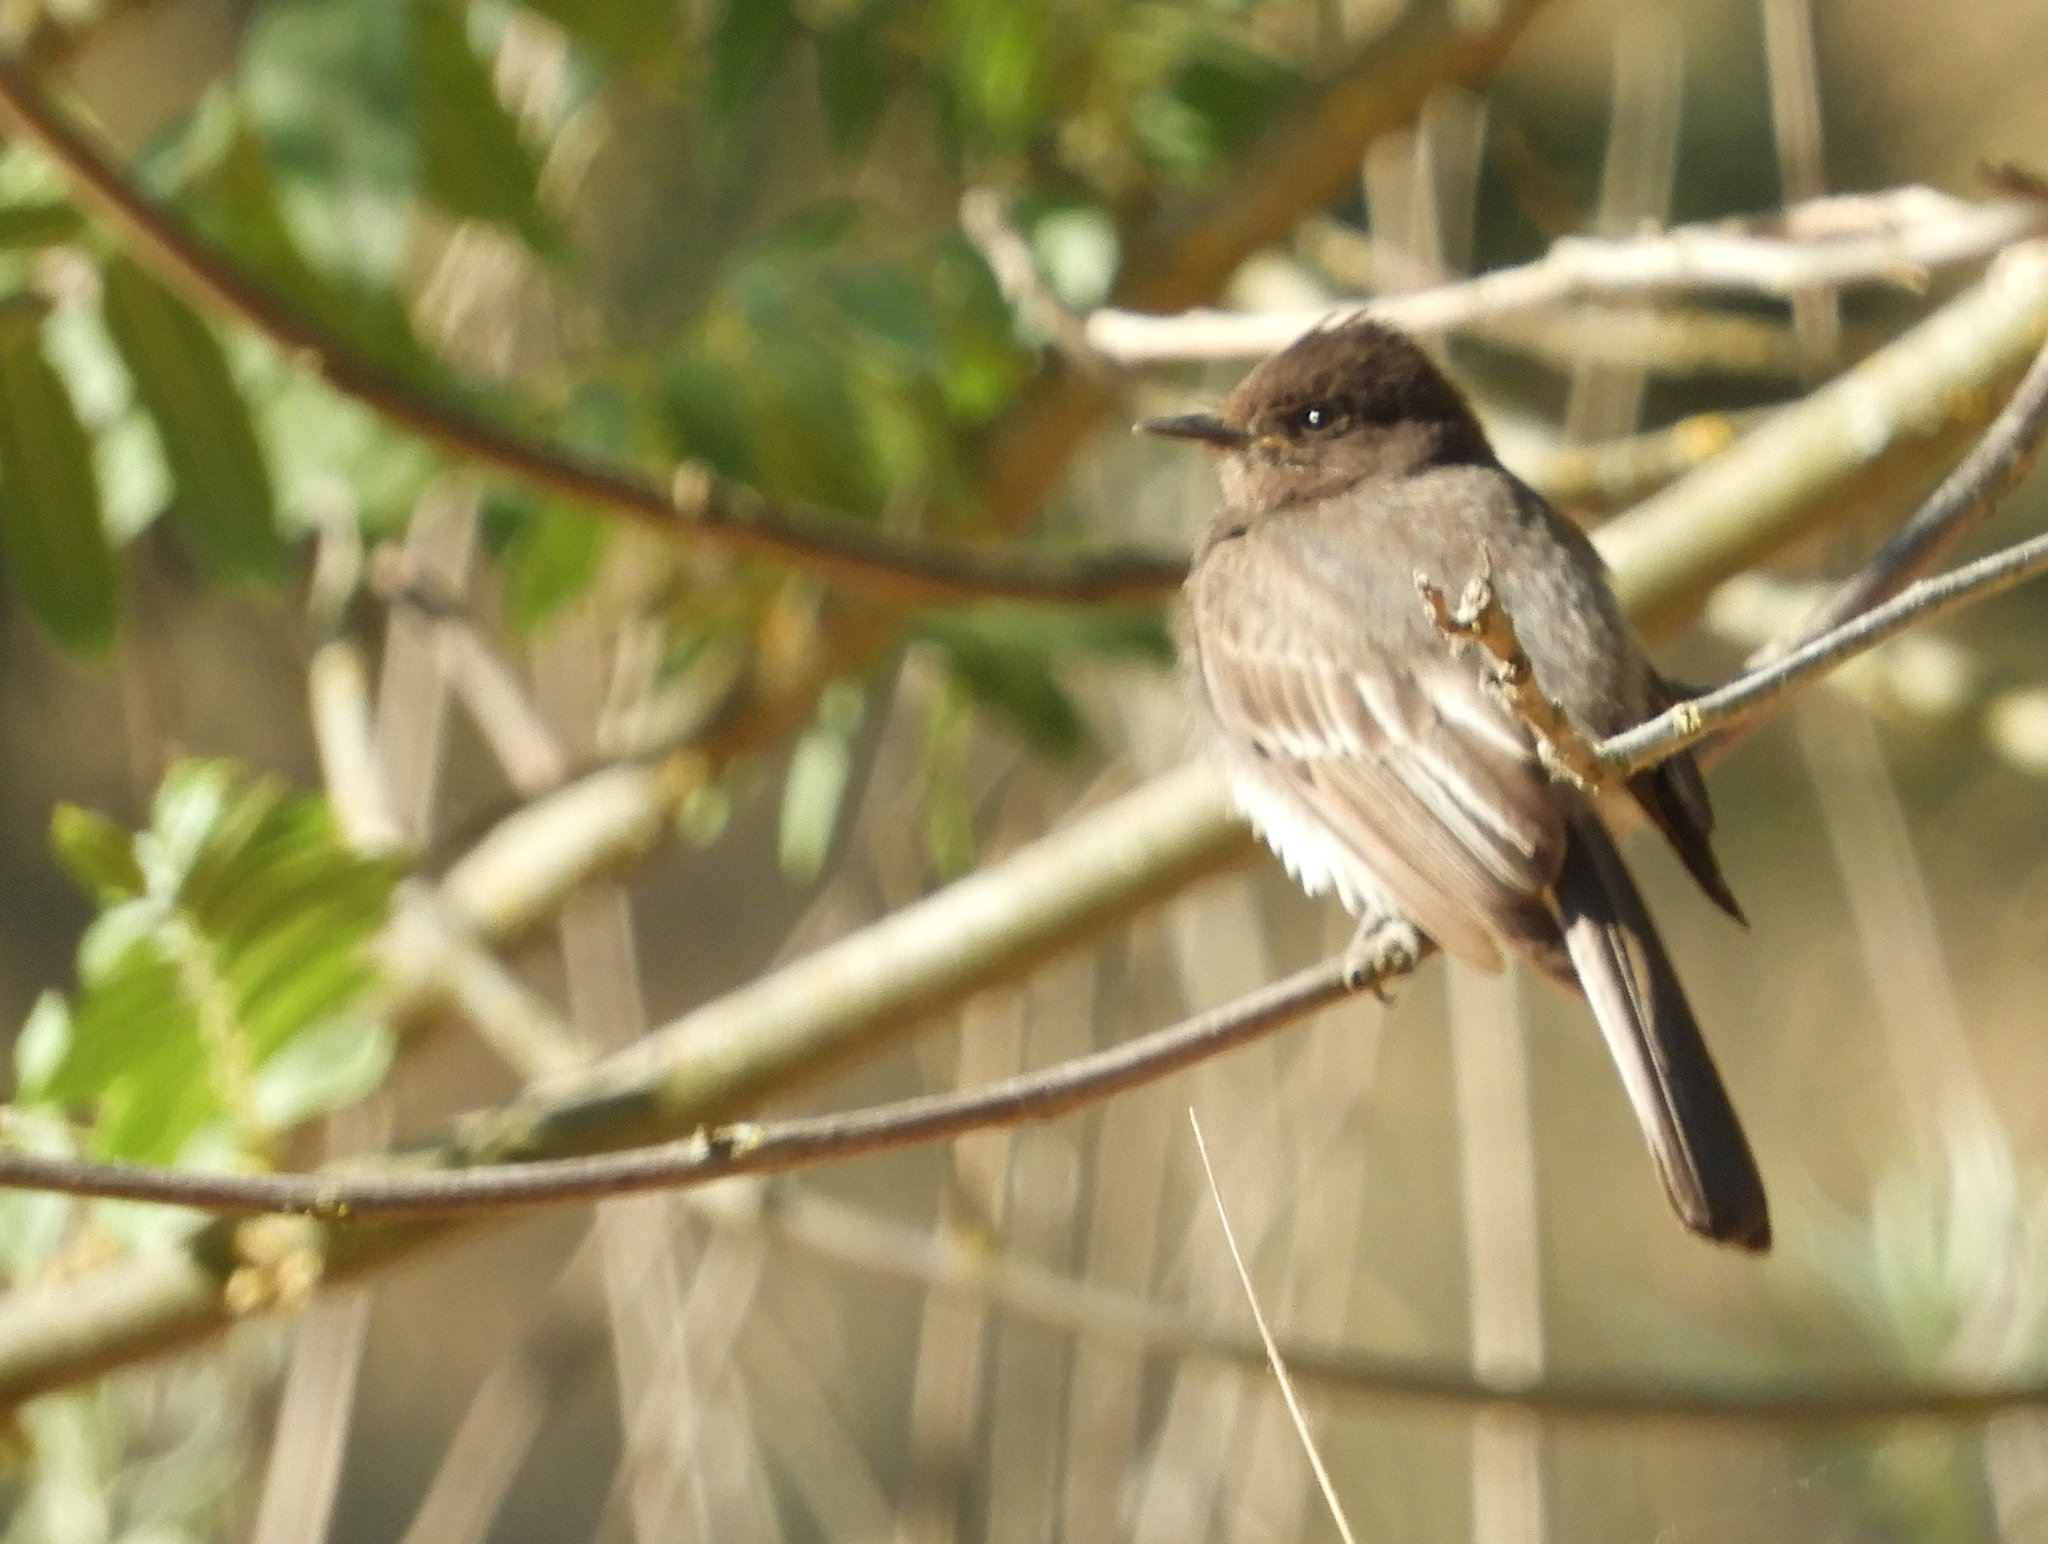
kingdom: Animalia
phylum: Chordata
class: Aves
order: Passeriformes
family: Tyrannidae
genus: Sayornis
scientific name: Sayornis nigricans
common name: Black phoebe
